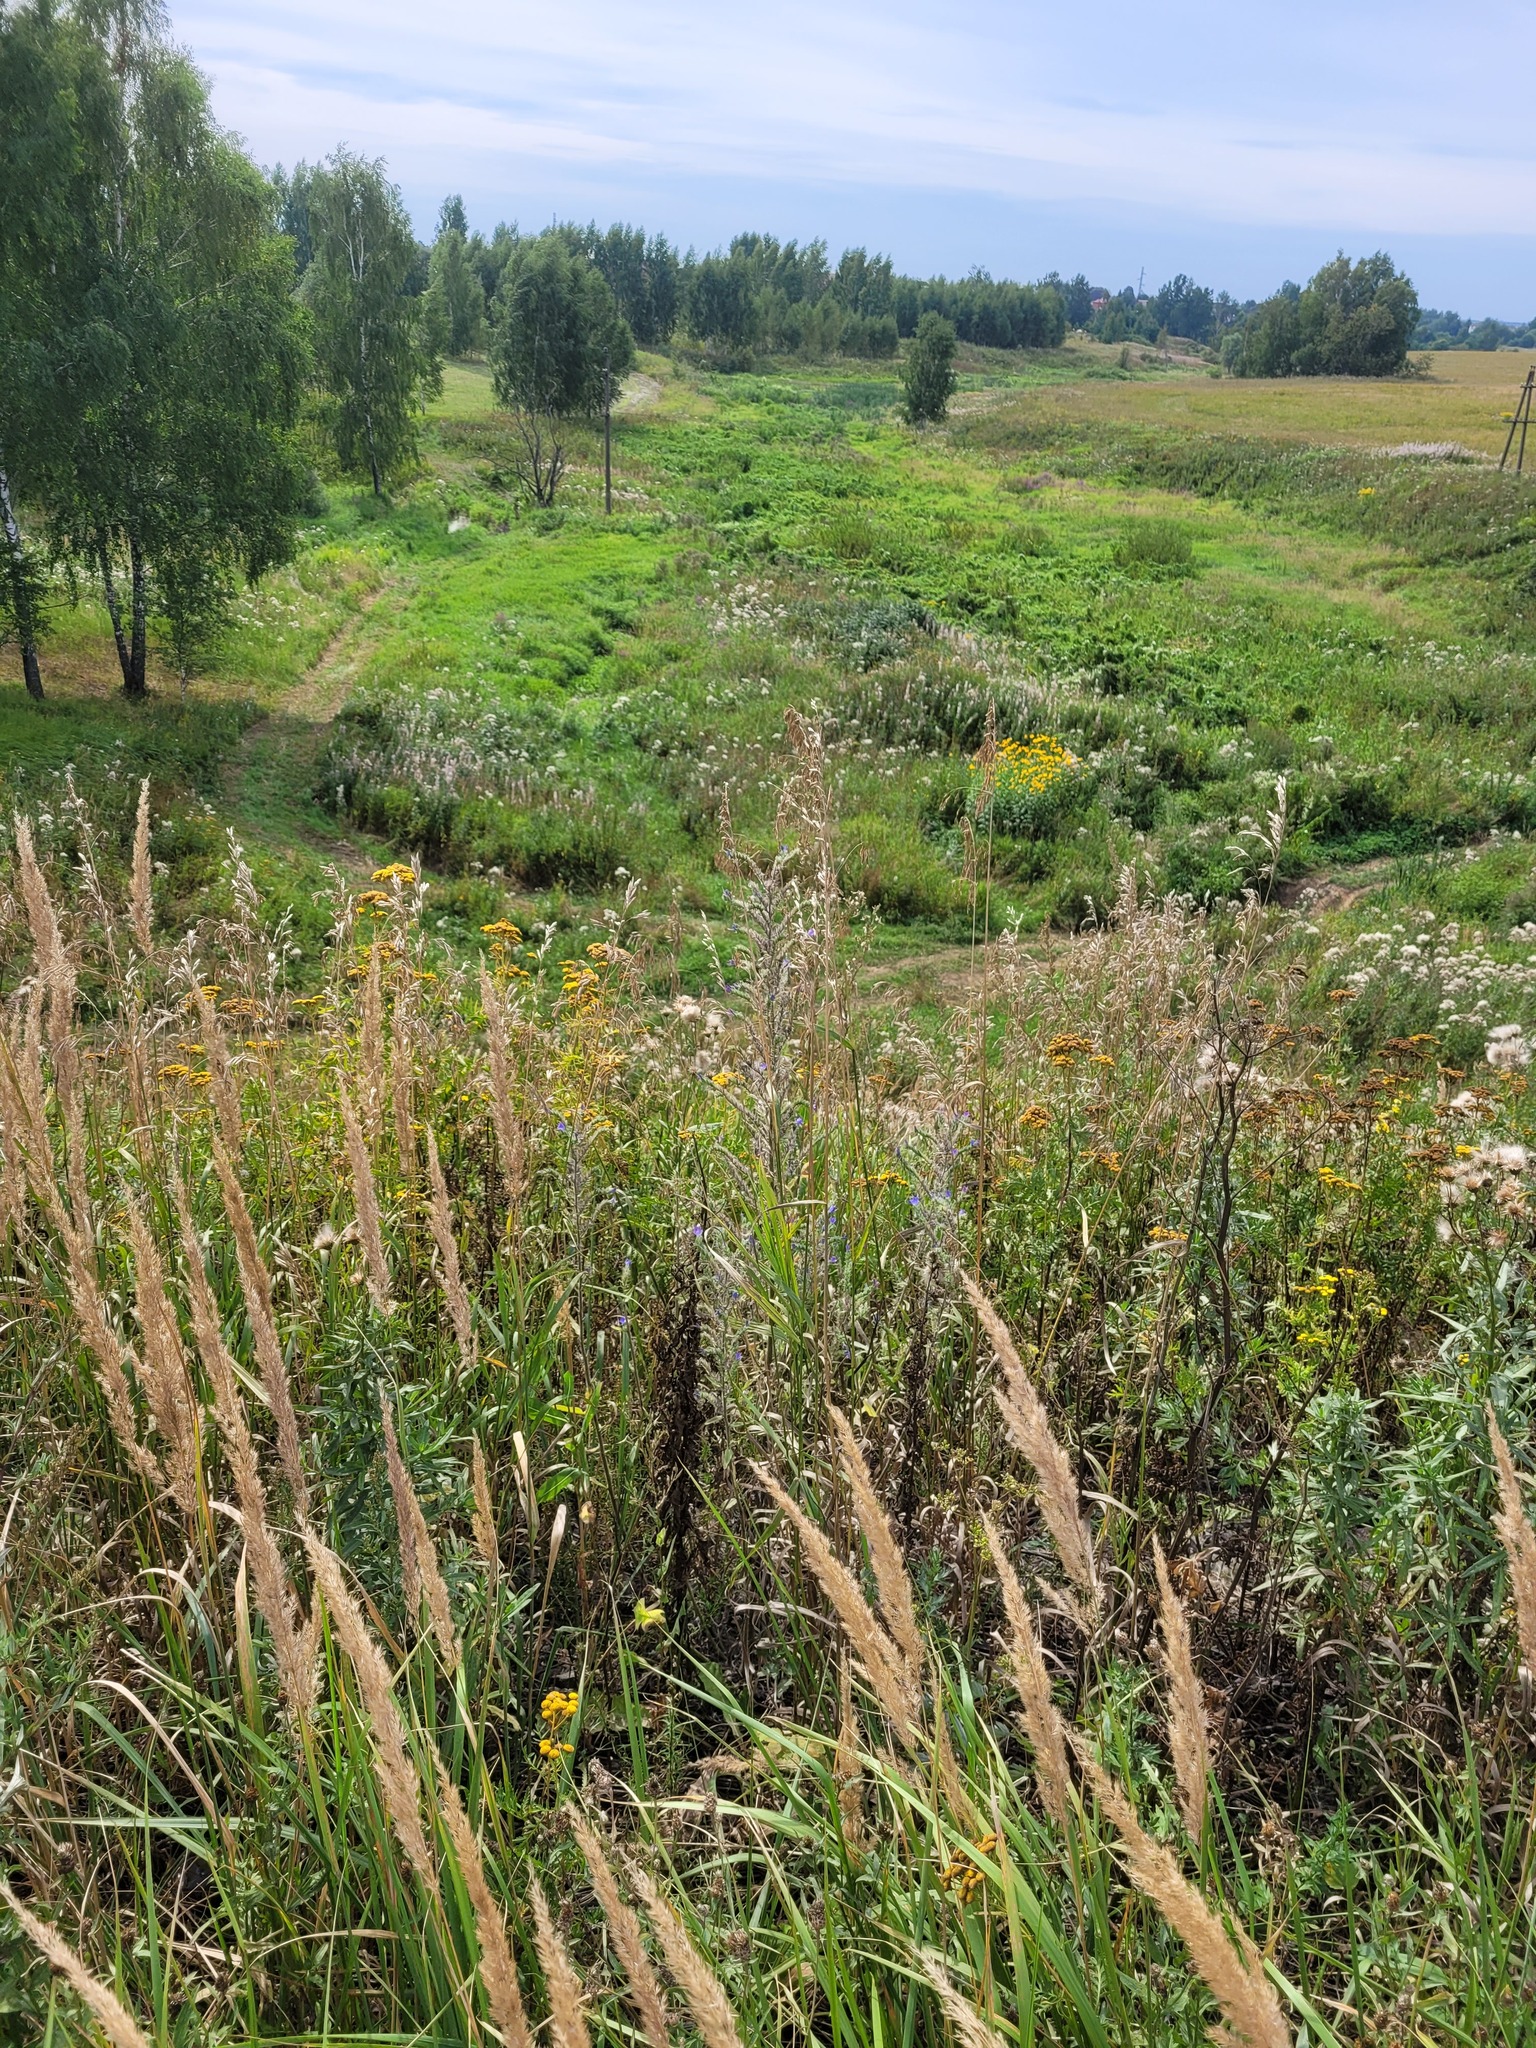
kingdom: Plantae
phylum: Tracheophyta
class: Magnoliopsida
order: Boraginales
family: Boraginaceae
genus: Echium
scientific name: Echium vulgare
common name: Common viper's bugloss
